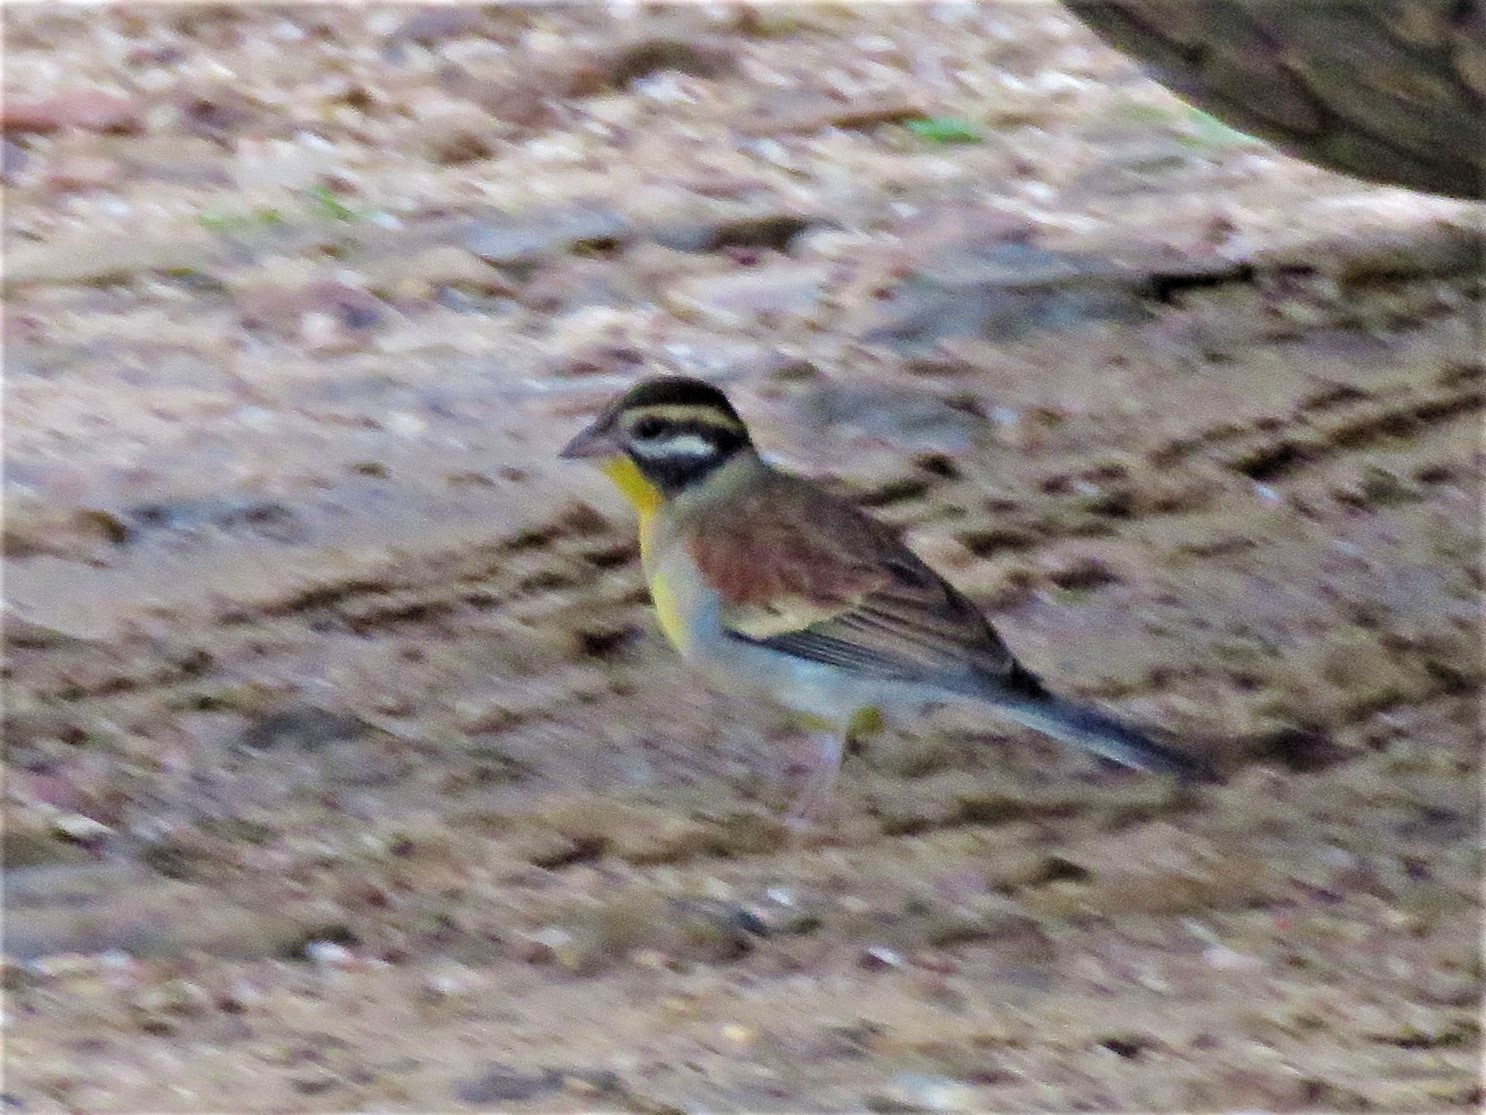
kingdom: Animalia
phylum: Chordata
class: Aves
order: Passeriformes
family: Emberizidae
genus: Emberiza
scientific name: Emberiza flaviventris
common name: Golden-breasted bunting
